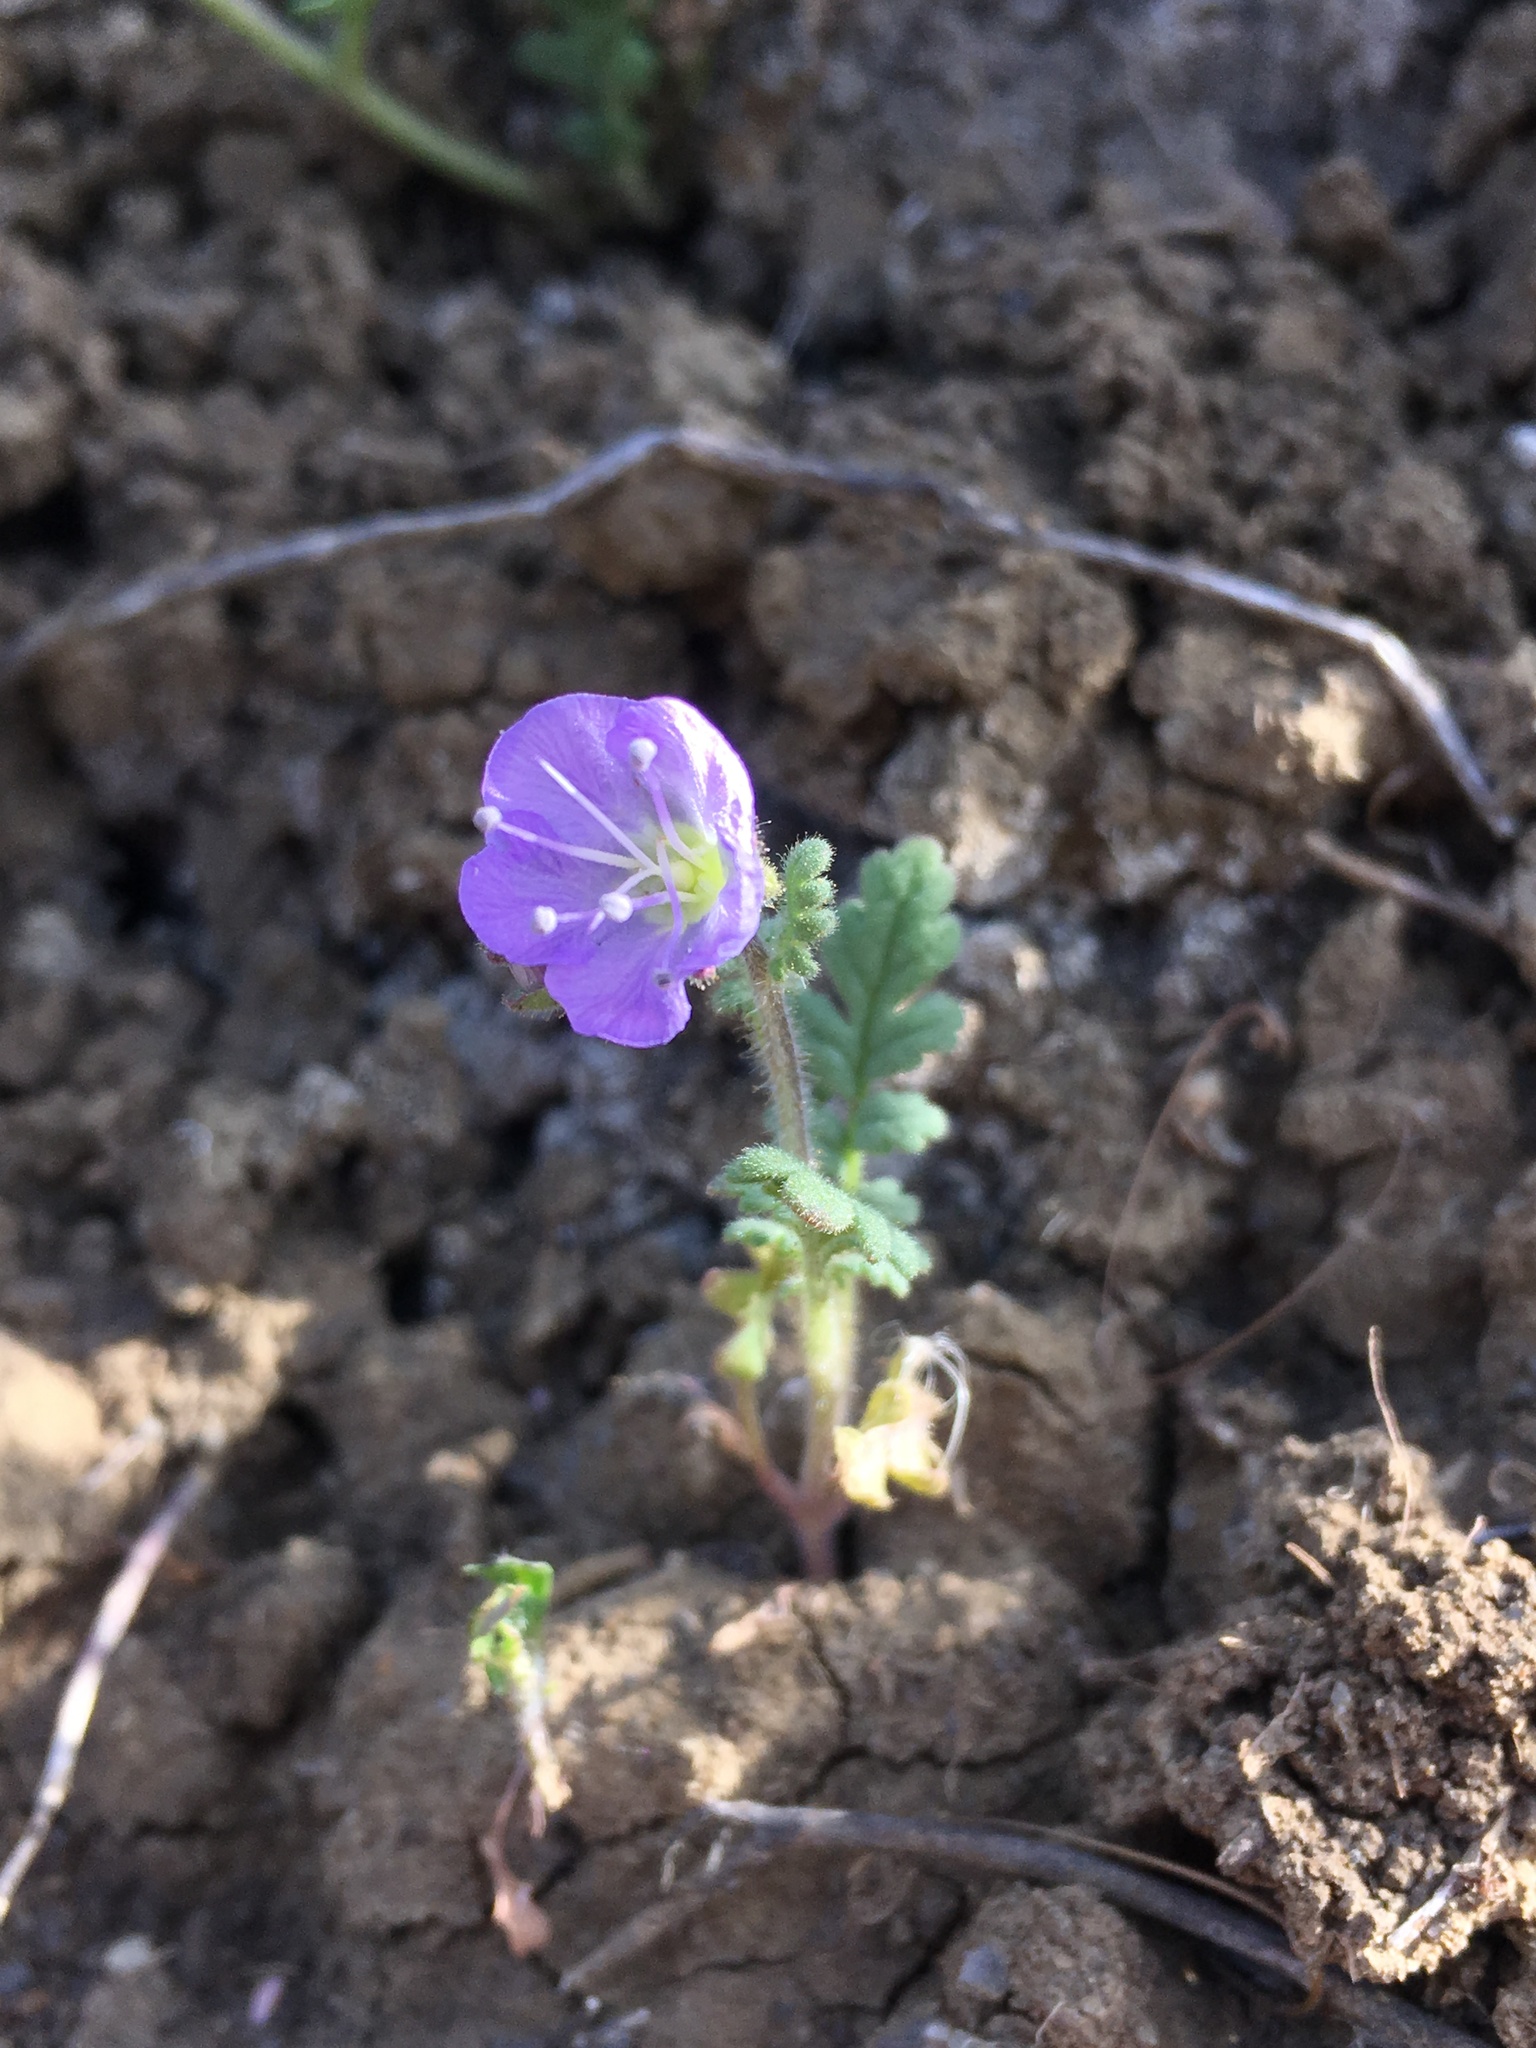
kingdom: Plantae
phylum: Tracheophyta
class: Magnoliopsida
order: Boraginales
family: Hydrophyllaceae
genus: Phacelia
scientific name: Phacelia ciliata
